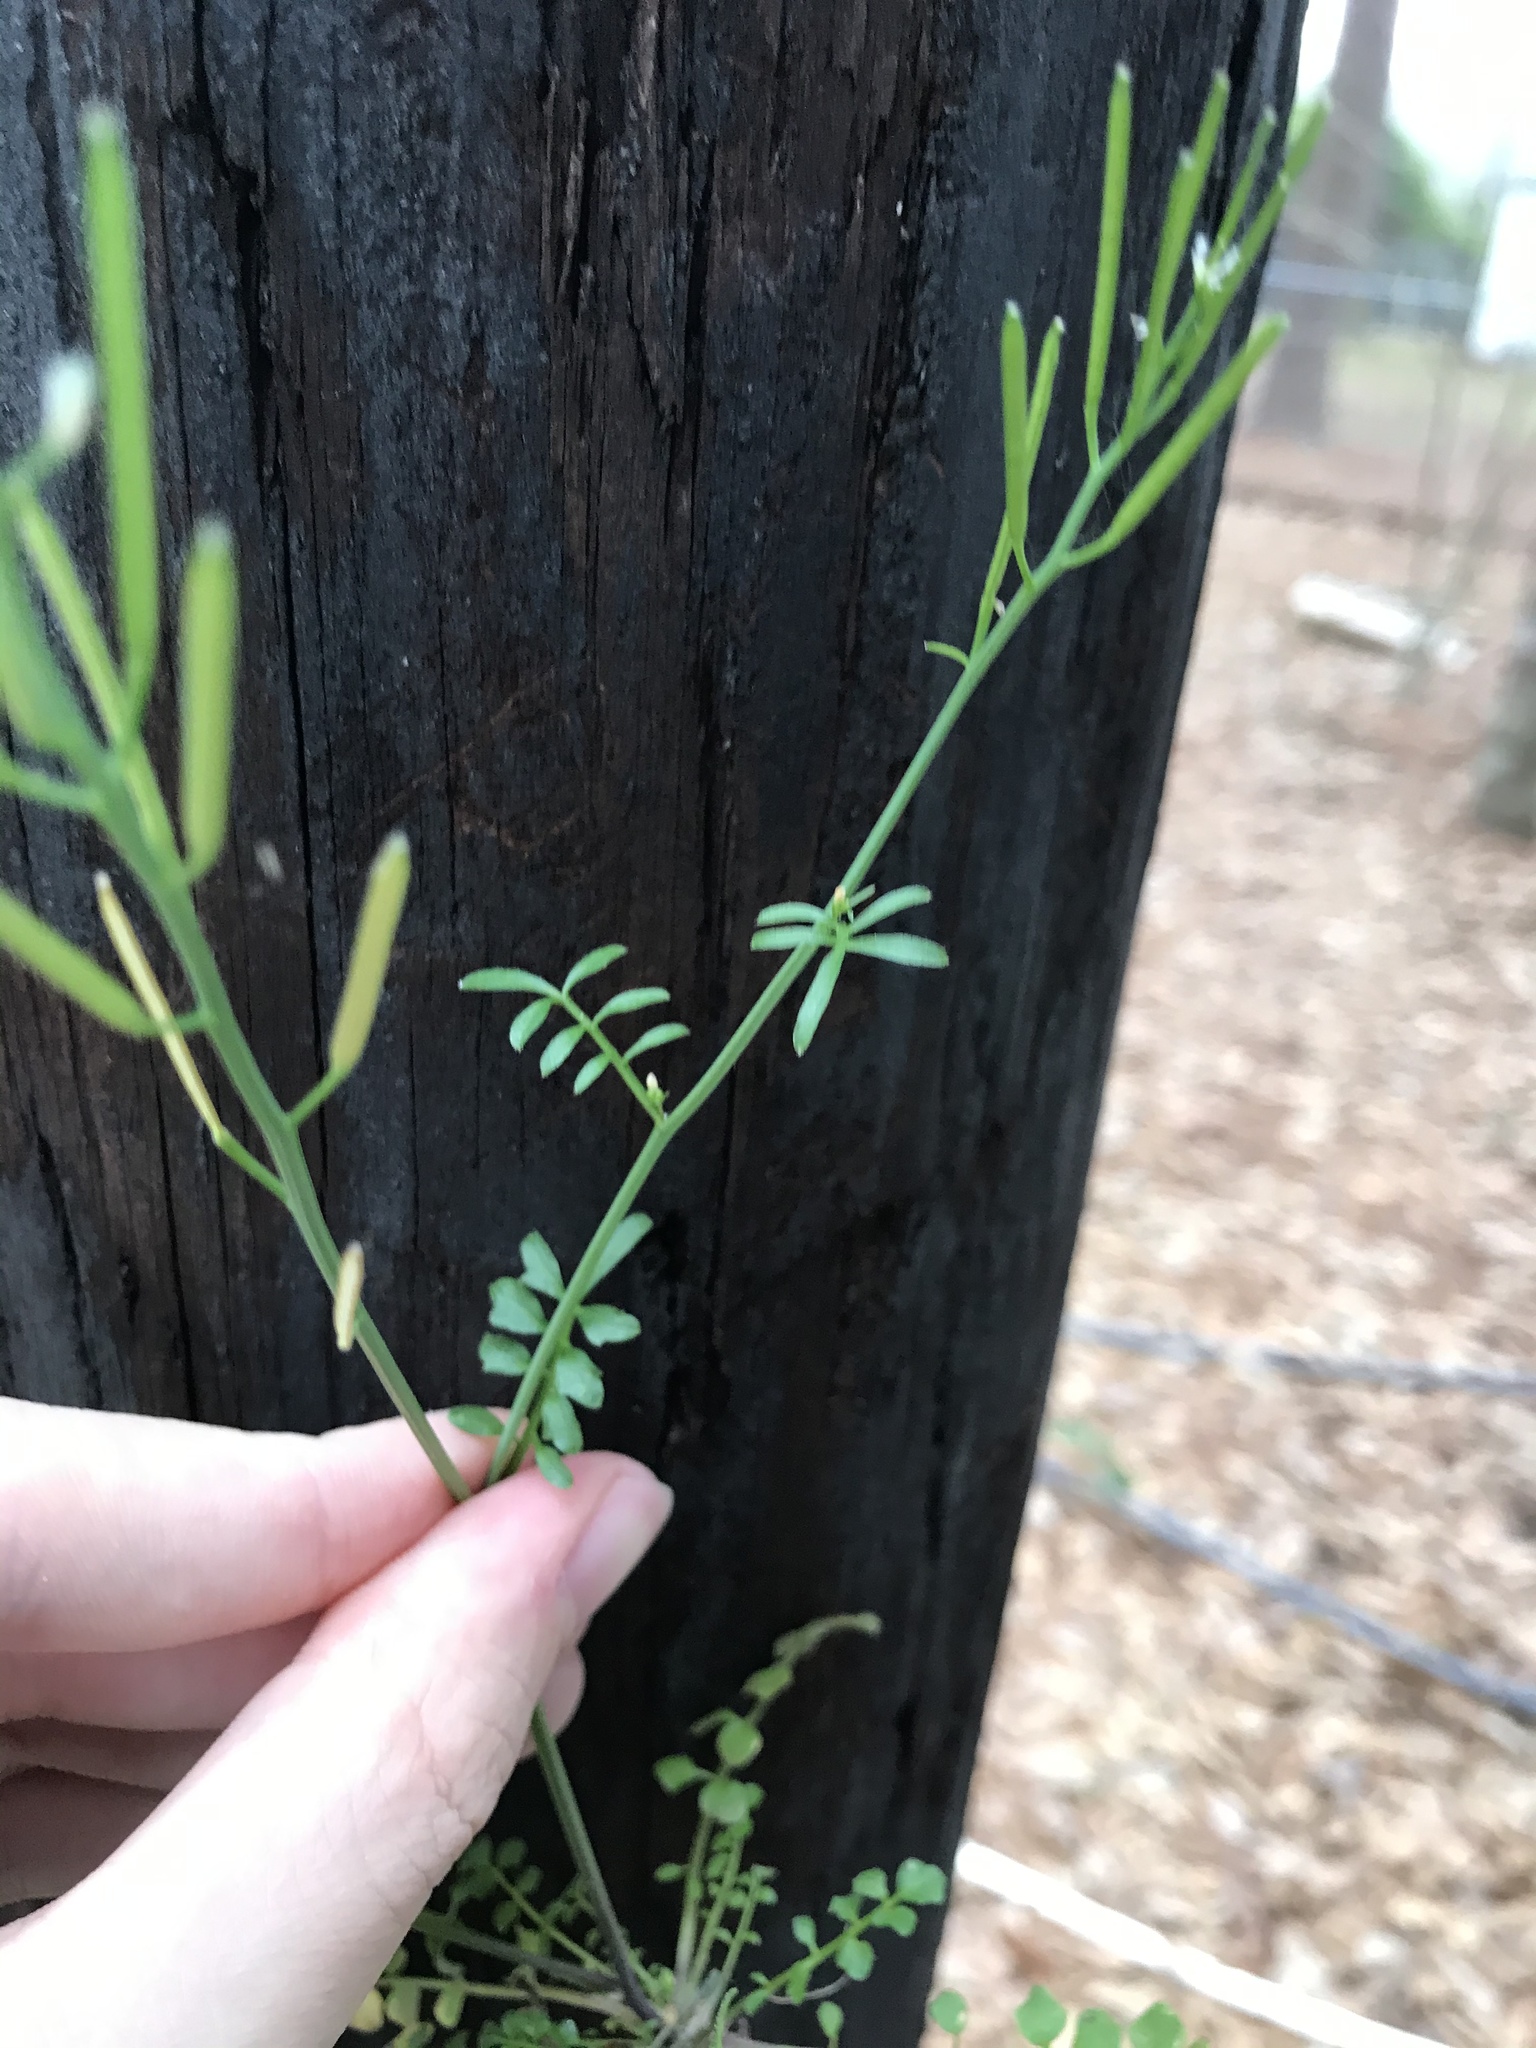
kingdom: Plantae
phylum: Tracheophyta
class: Magnoliopsida
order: Brassicales
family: Brassicaceae
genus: Cardamine
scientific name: Cardamine hirsuta
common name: Hairy bittercress
